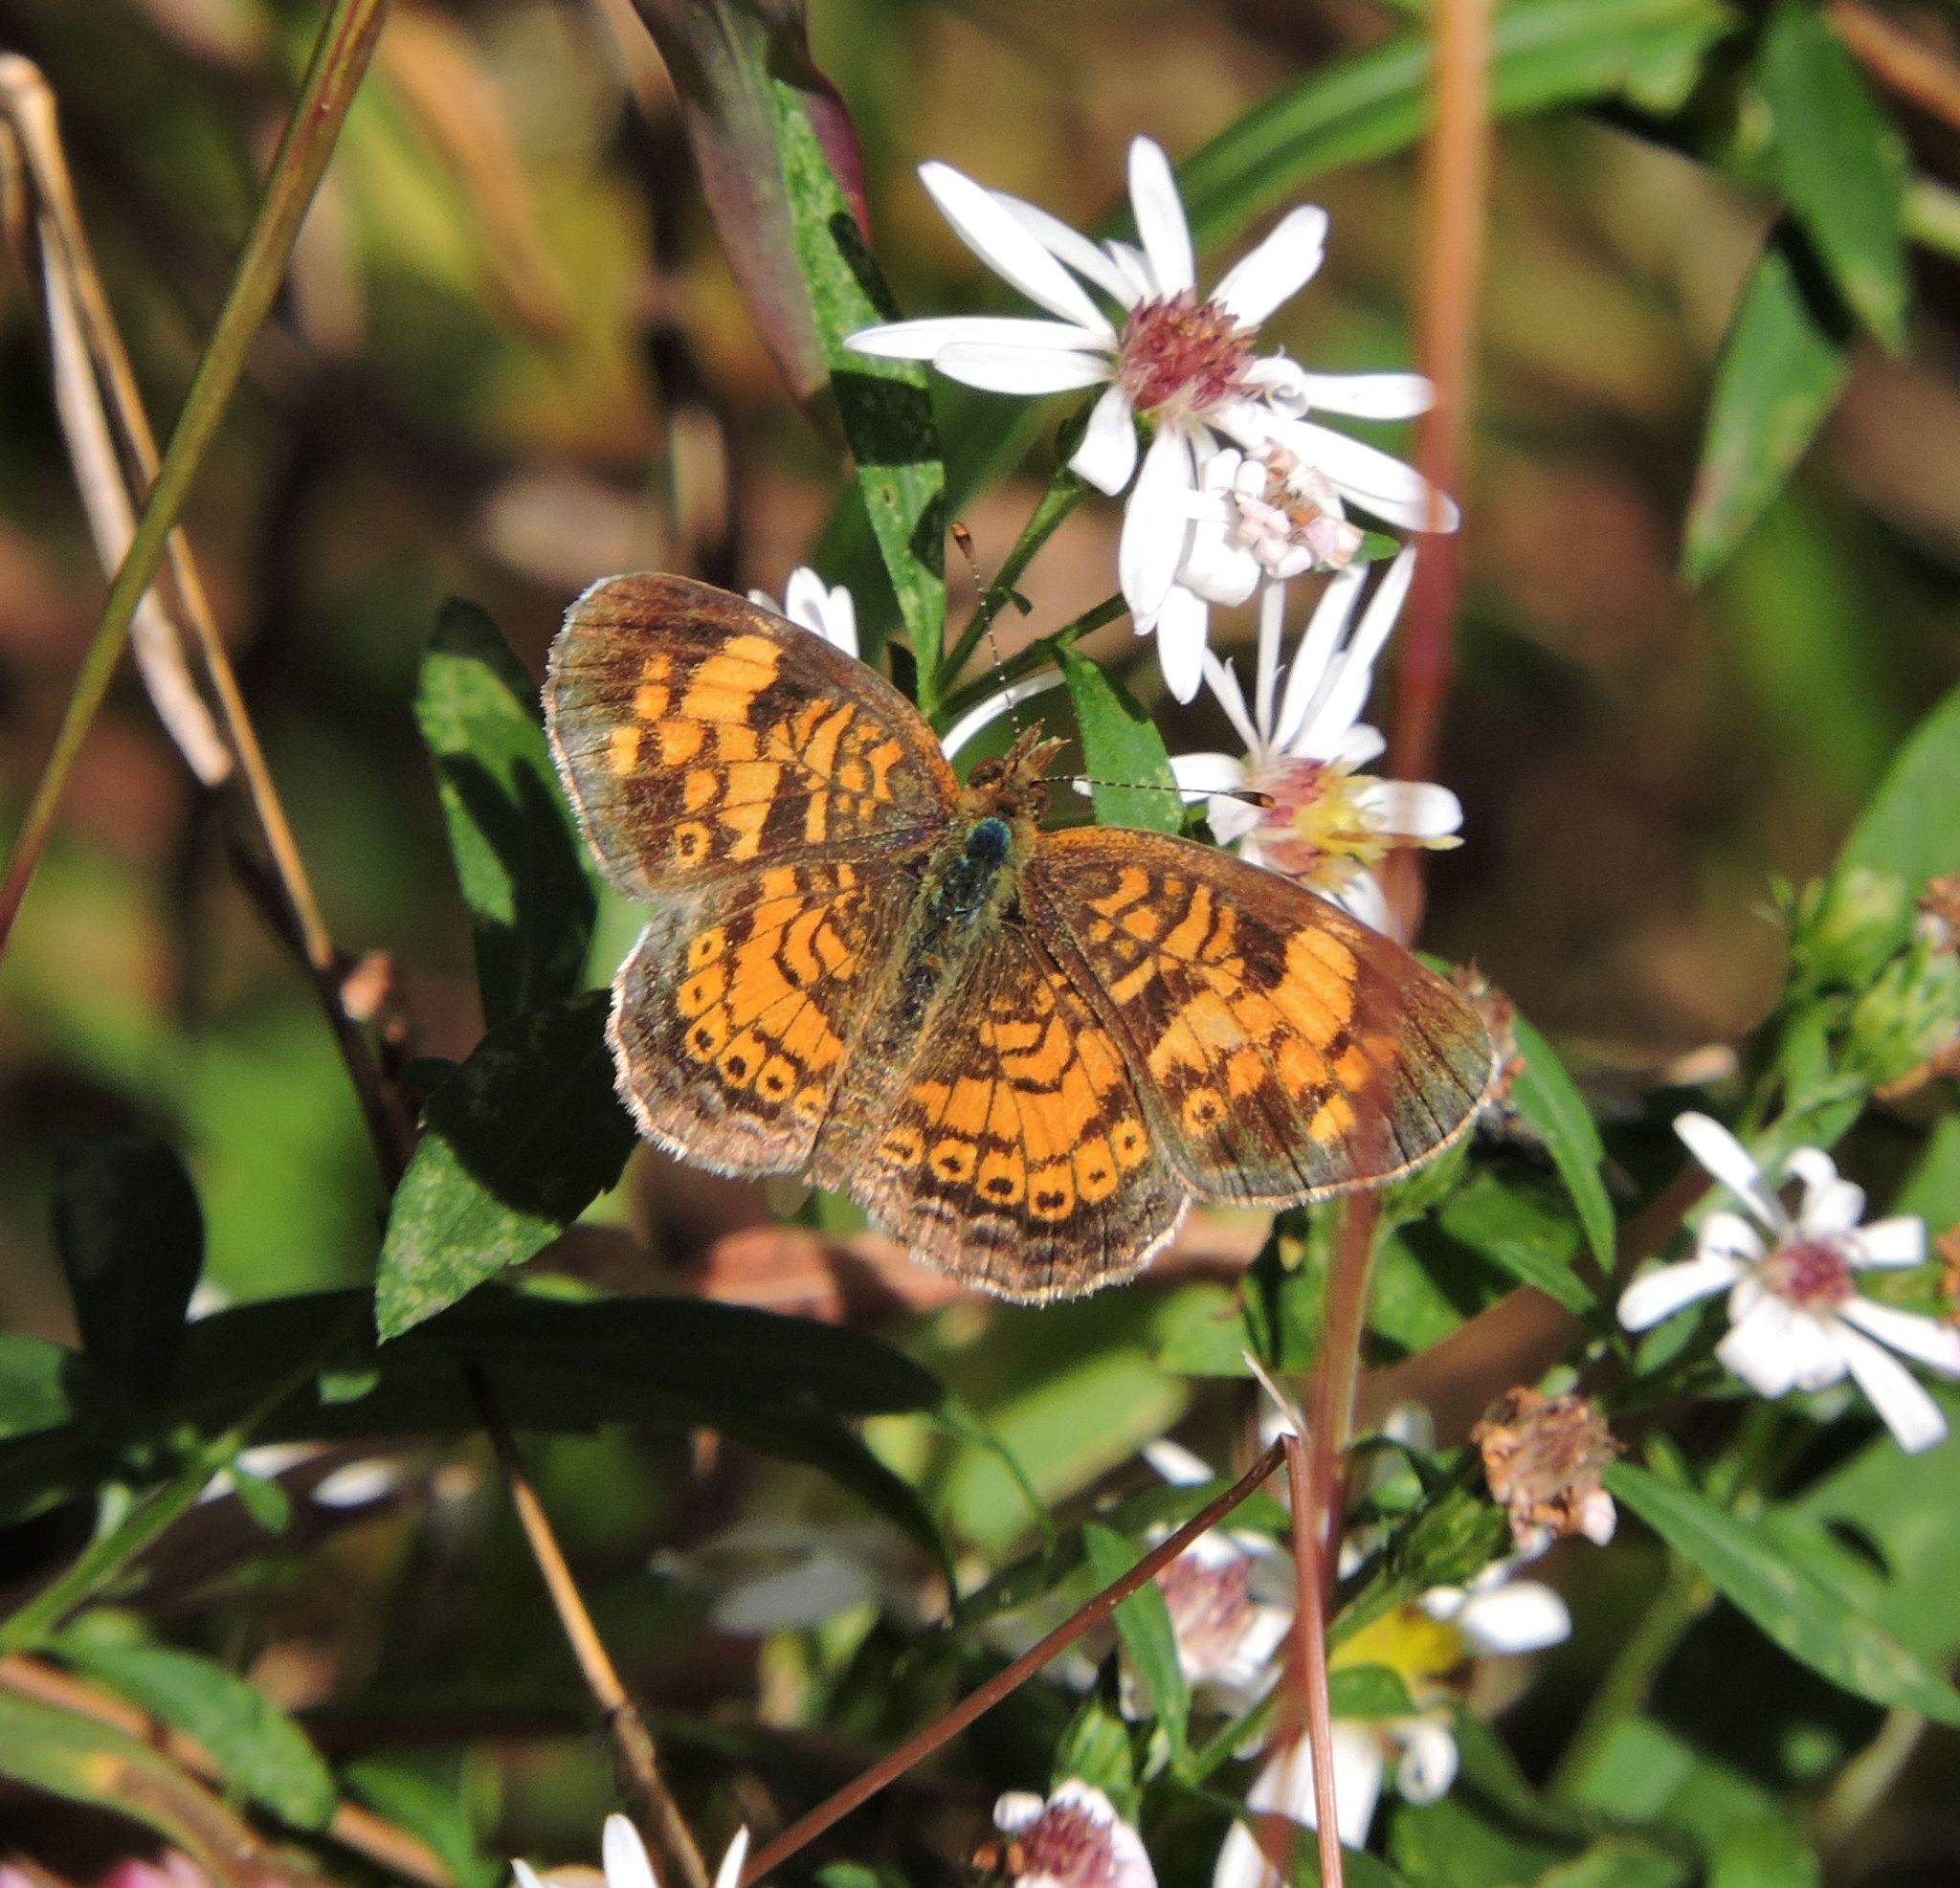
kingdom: Animalia
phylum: Arthropoda
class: Insecta
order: Lepidoptera
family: Nymphalidae
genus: Phyciodes
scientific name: Phyciodes tharos
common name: Pearl crescent
